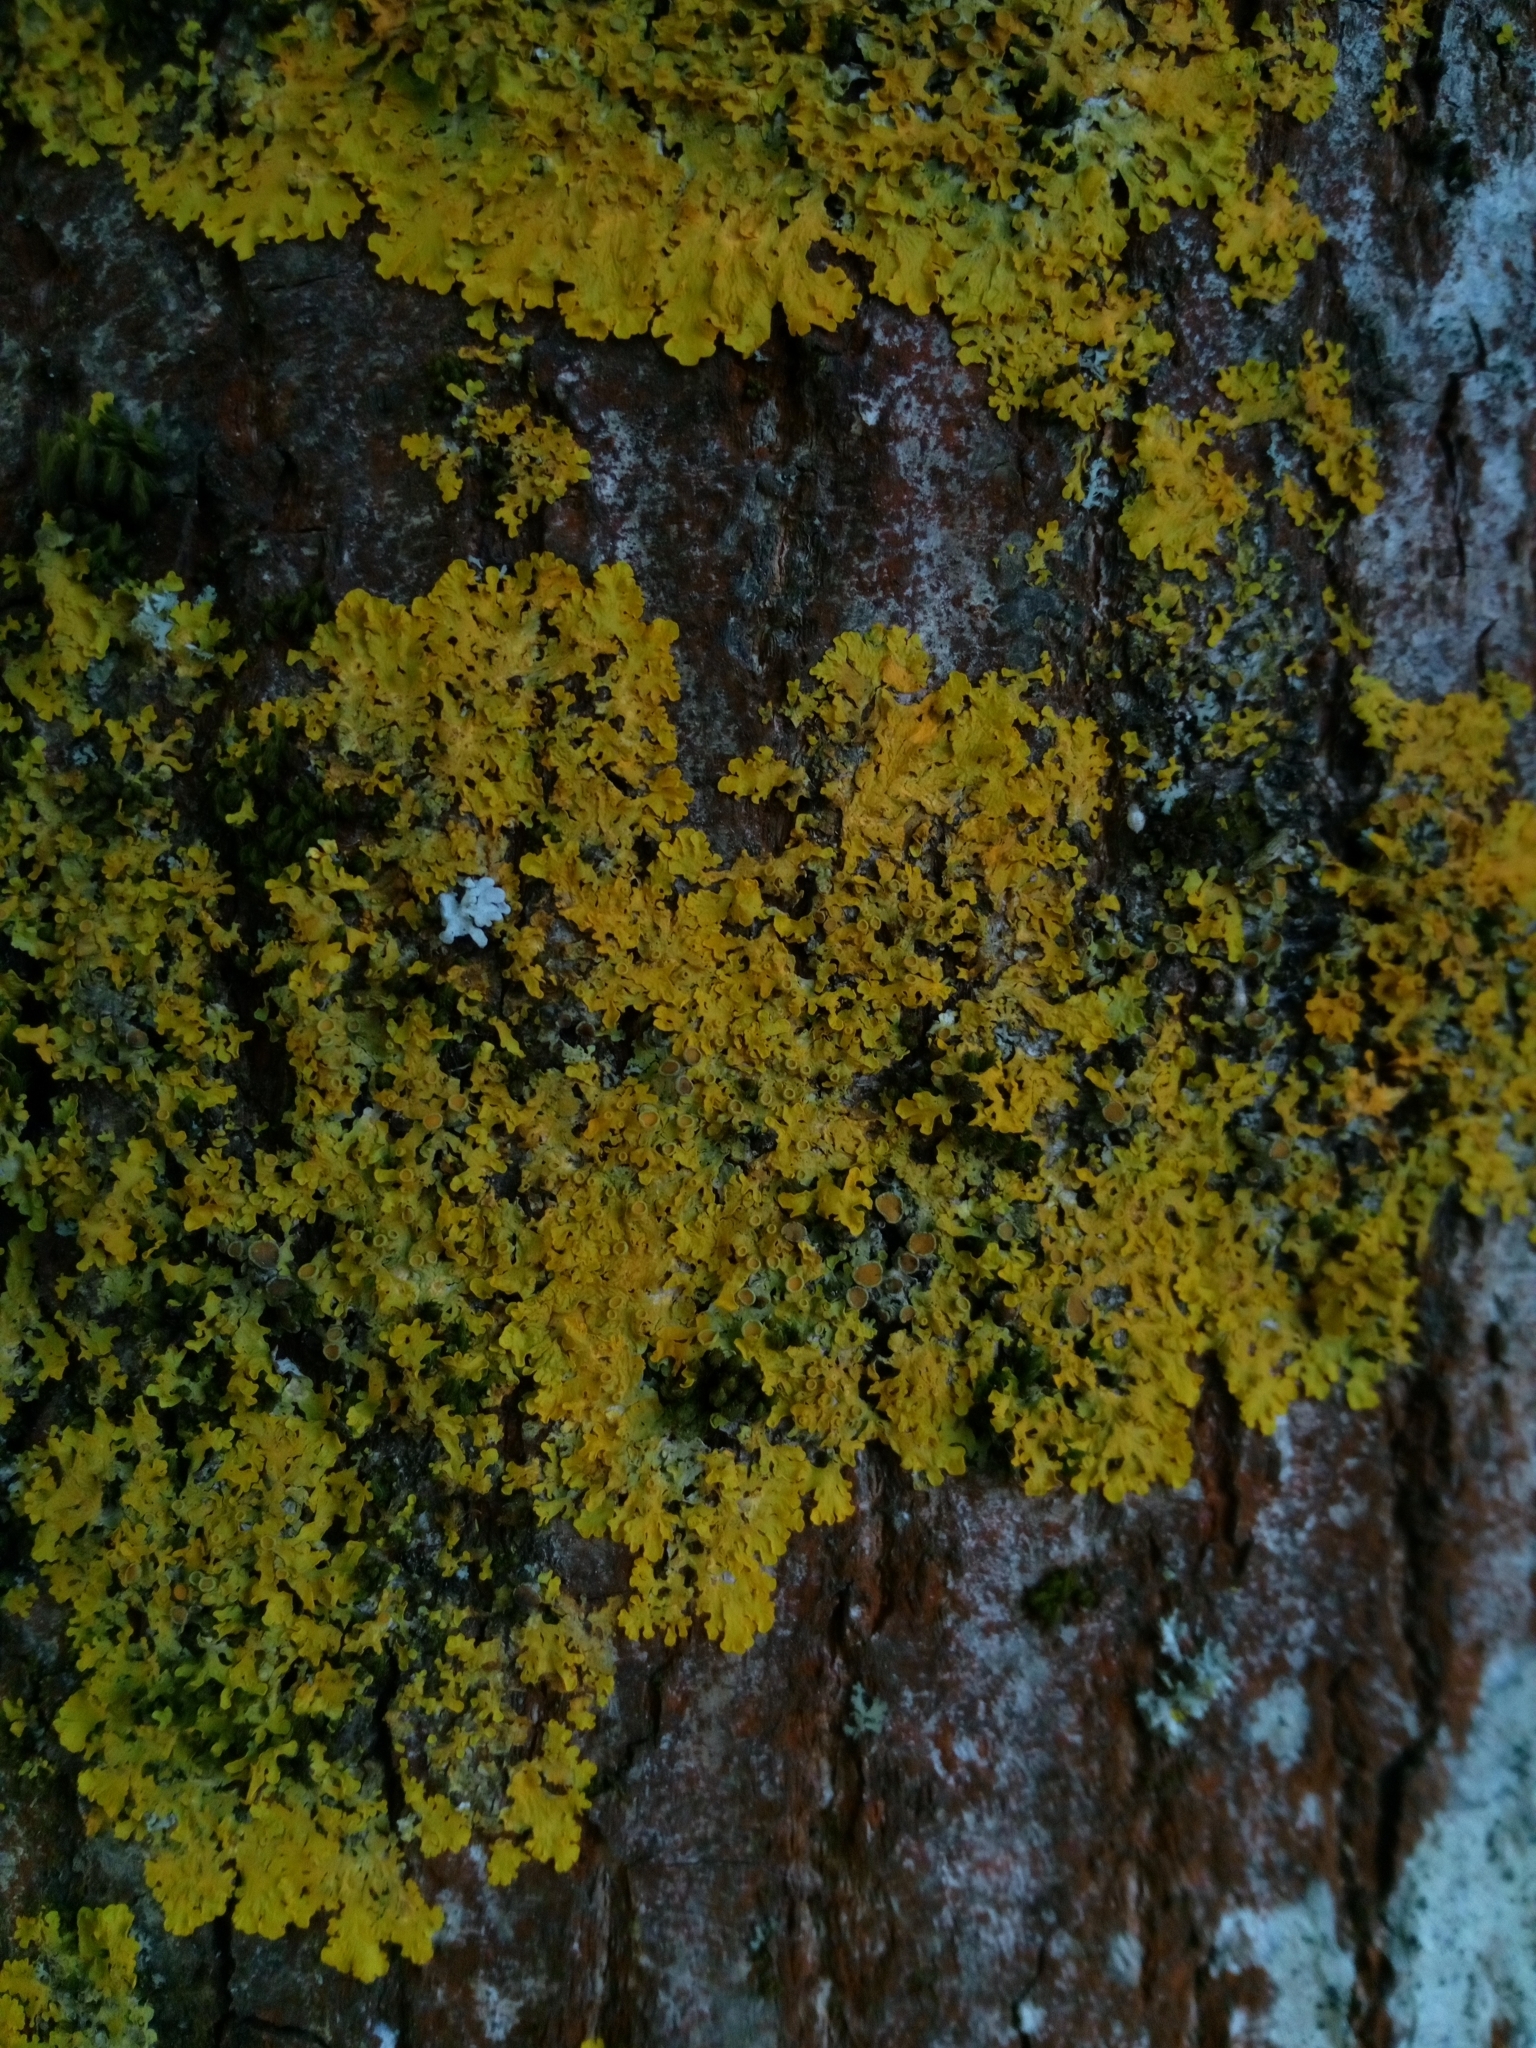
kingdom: Fungi
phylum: Ascomycota
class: Lecanoromycetes
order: Teloschistales
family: Teloschistaceae
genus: Xanthoria
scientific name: Xanthoria parietina
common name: Common orange lichen
